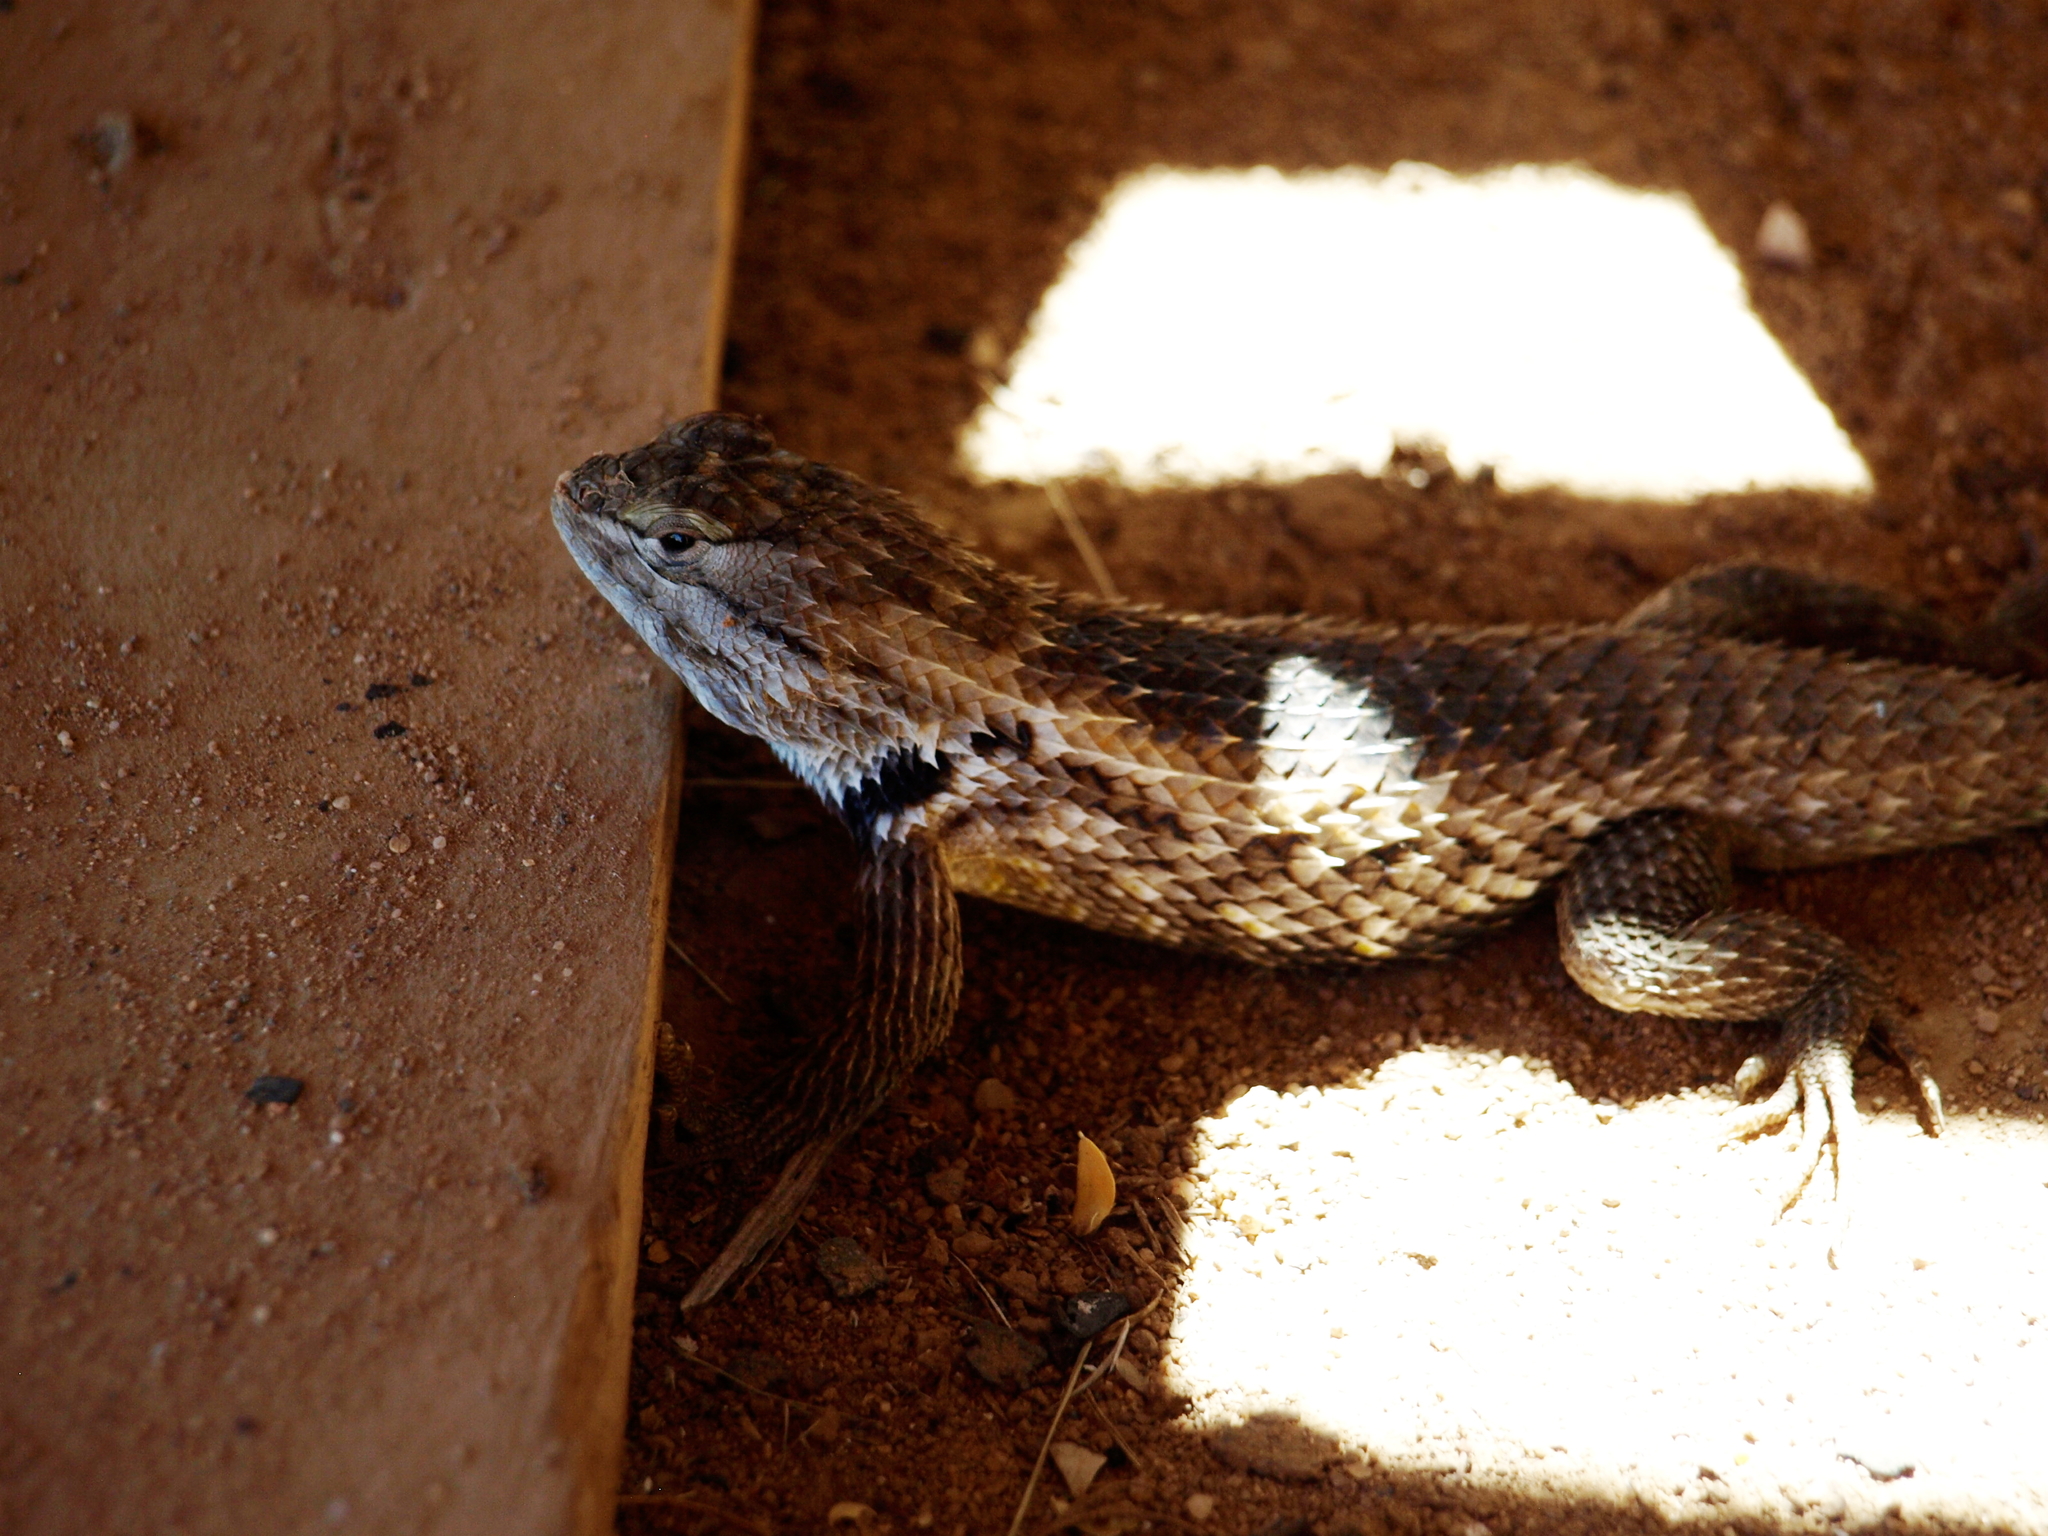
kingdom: Animalia
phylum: Chordata
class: Squamata
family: Phrynosomatidae
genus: Sceloporus
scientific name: Sceloporus magister
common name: Desert spiny lizard
